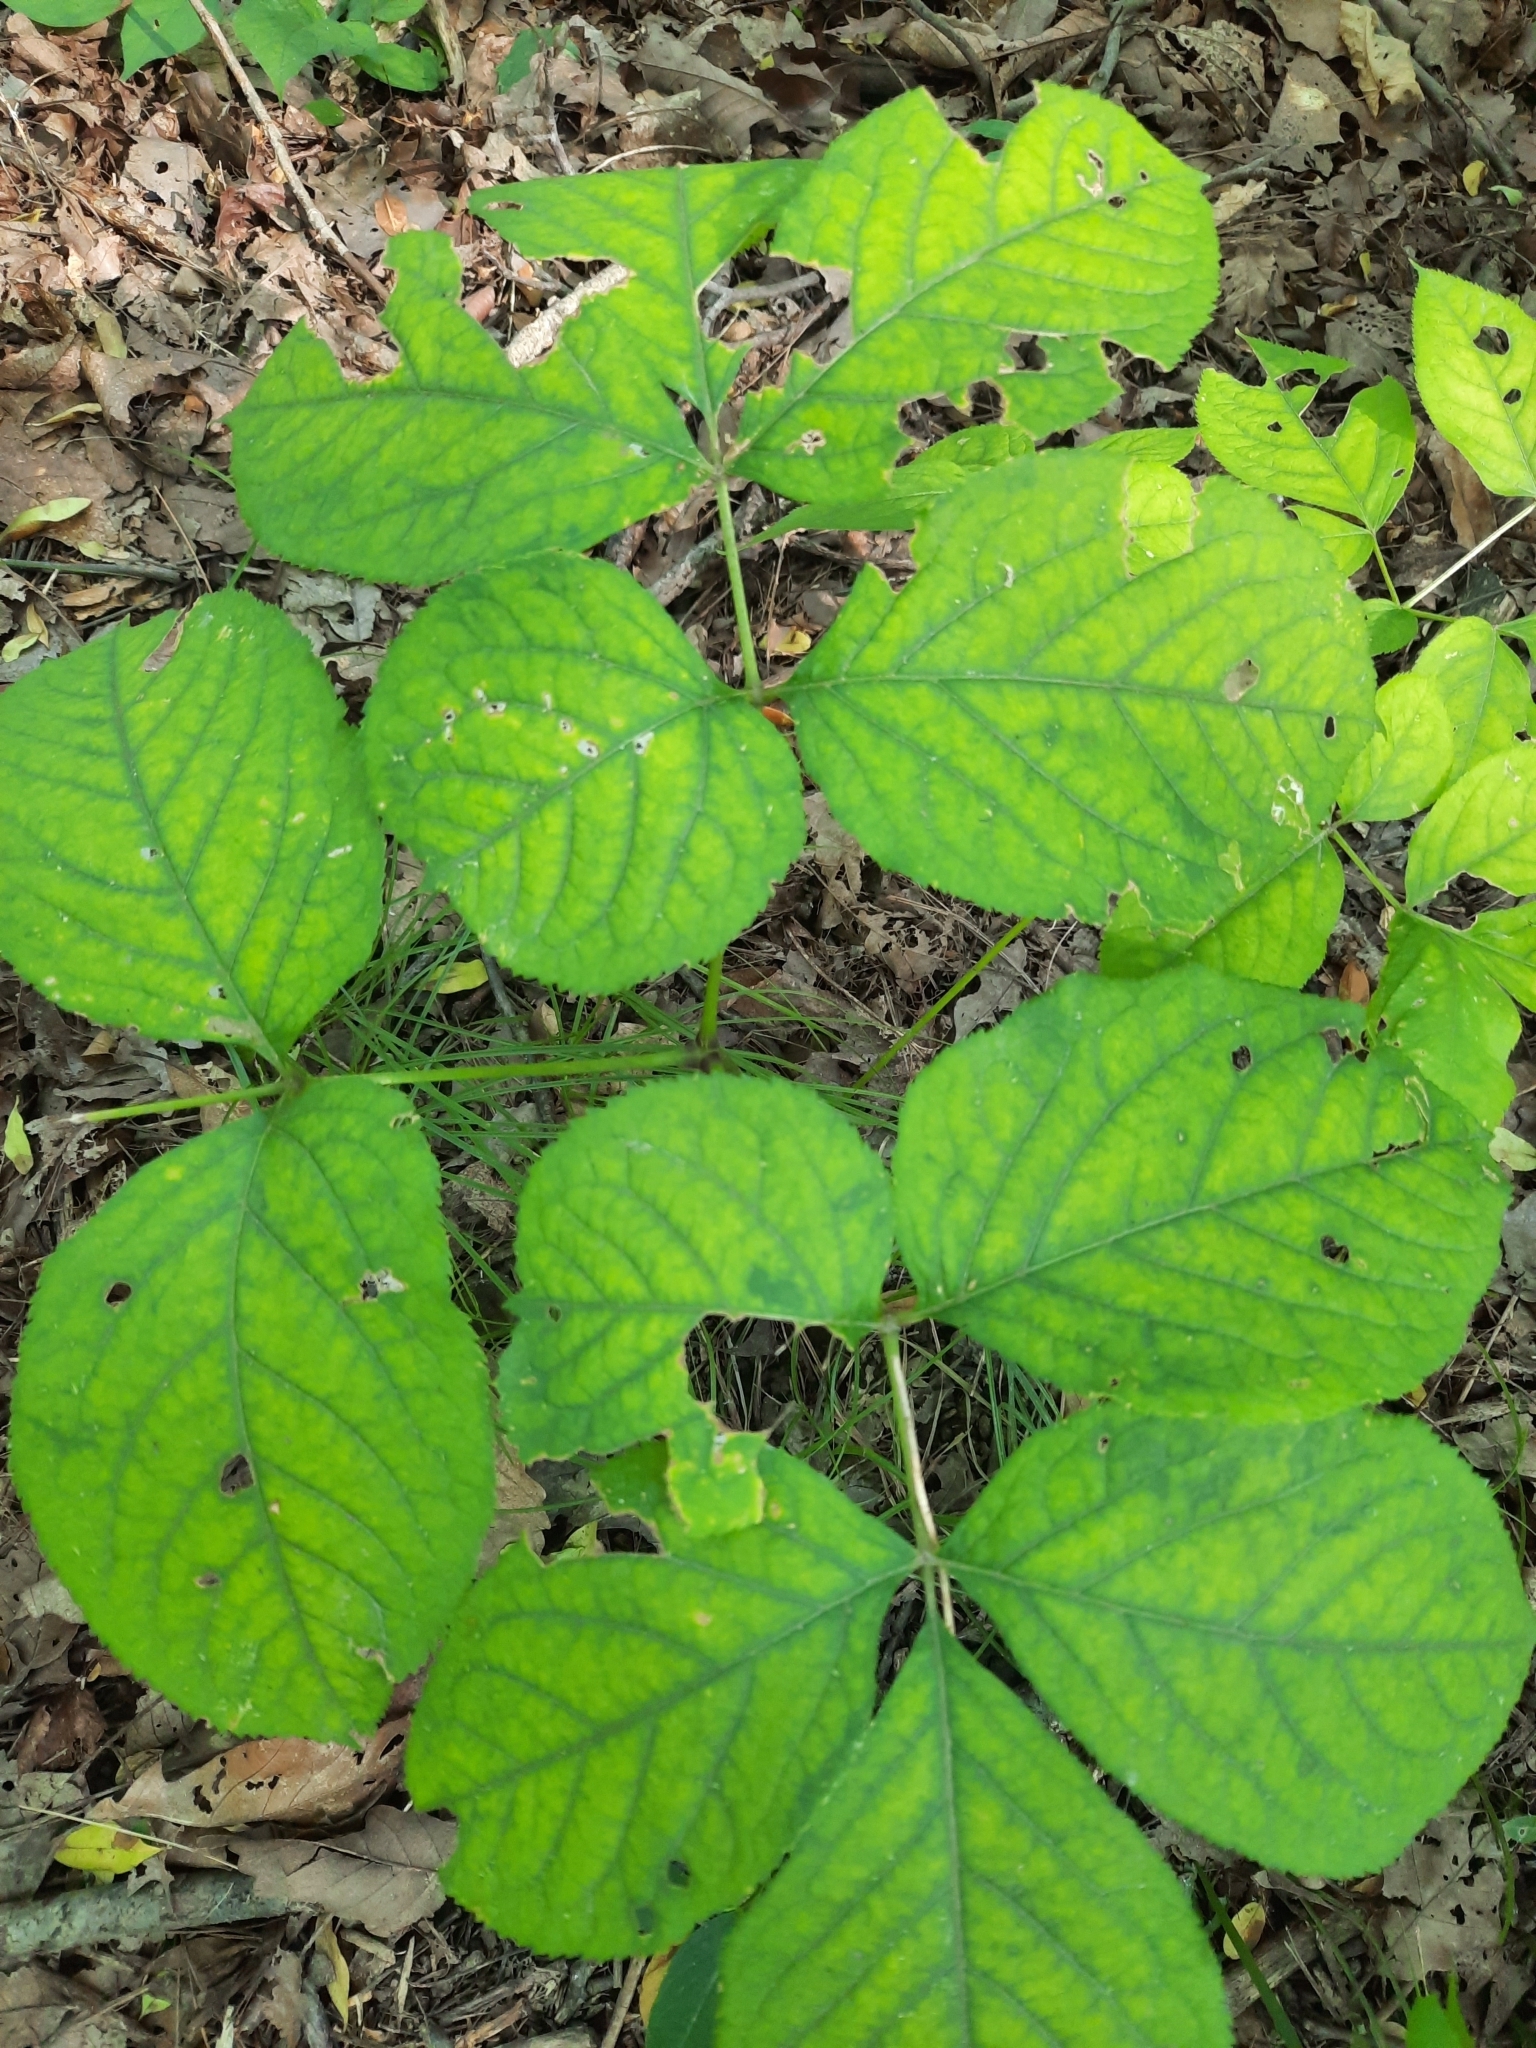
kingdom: Plantae
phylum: Tracheophyta
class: Magnoliopsida
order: Apiales
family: Araliaceae
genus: Aralia
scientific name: Aralia nudicaulis
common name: Wild sarsaparilla
